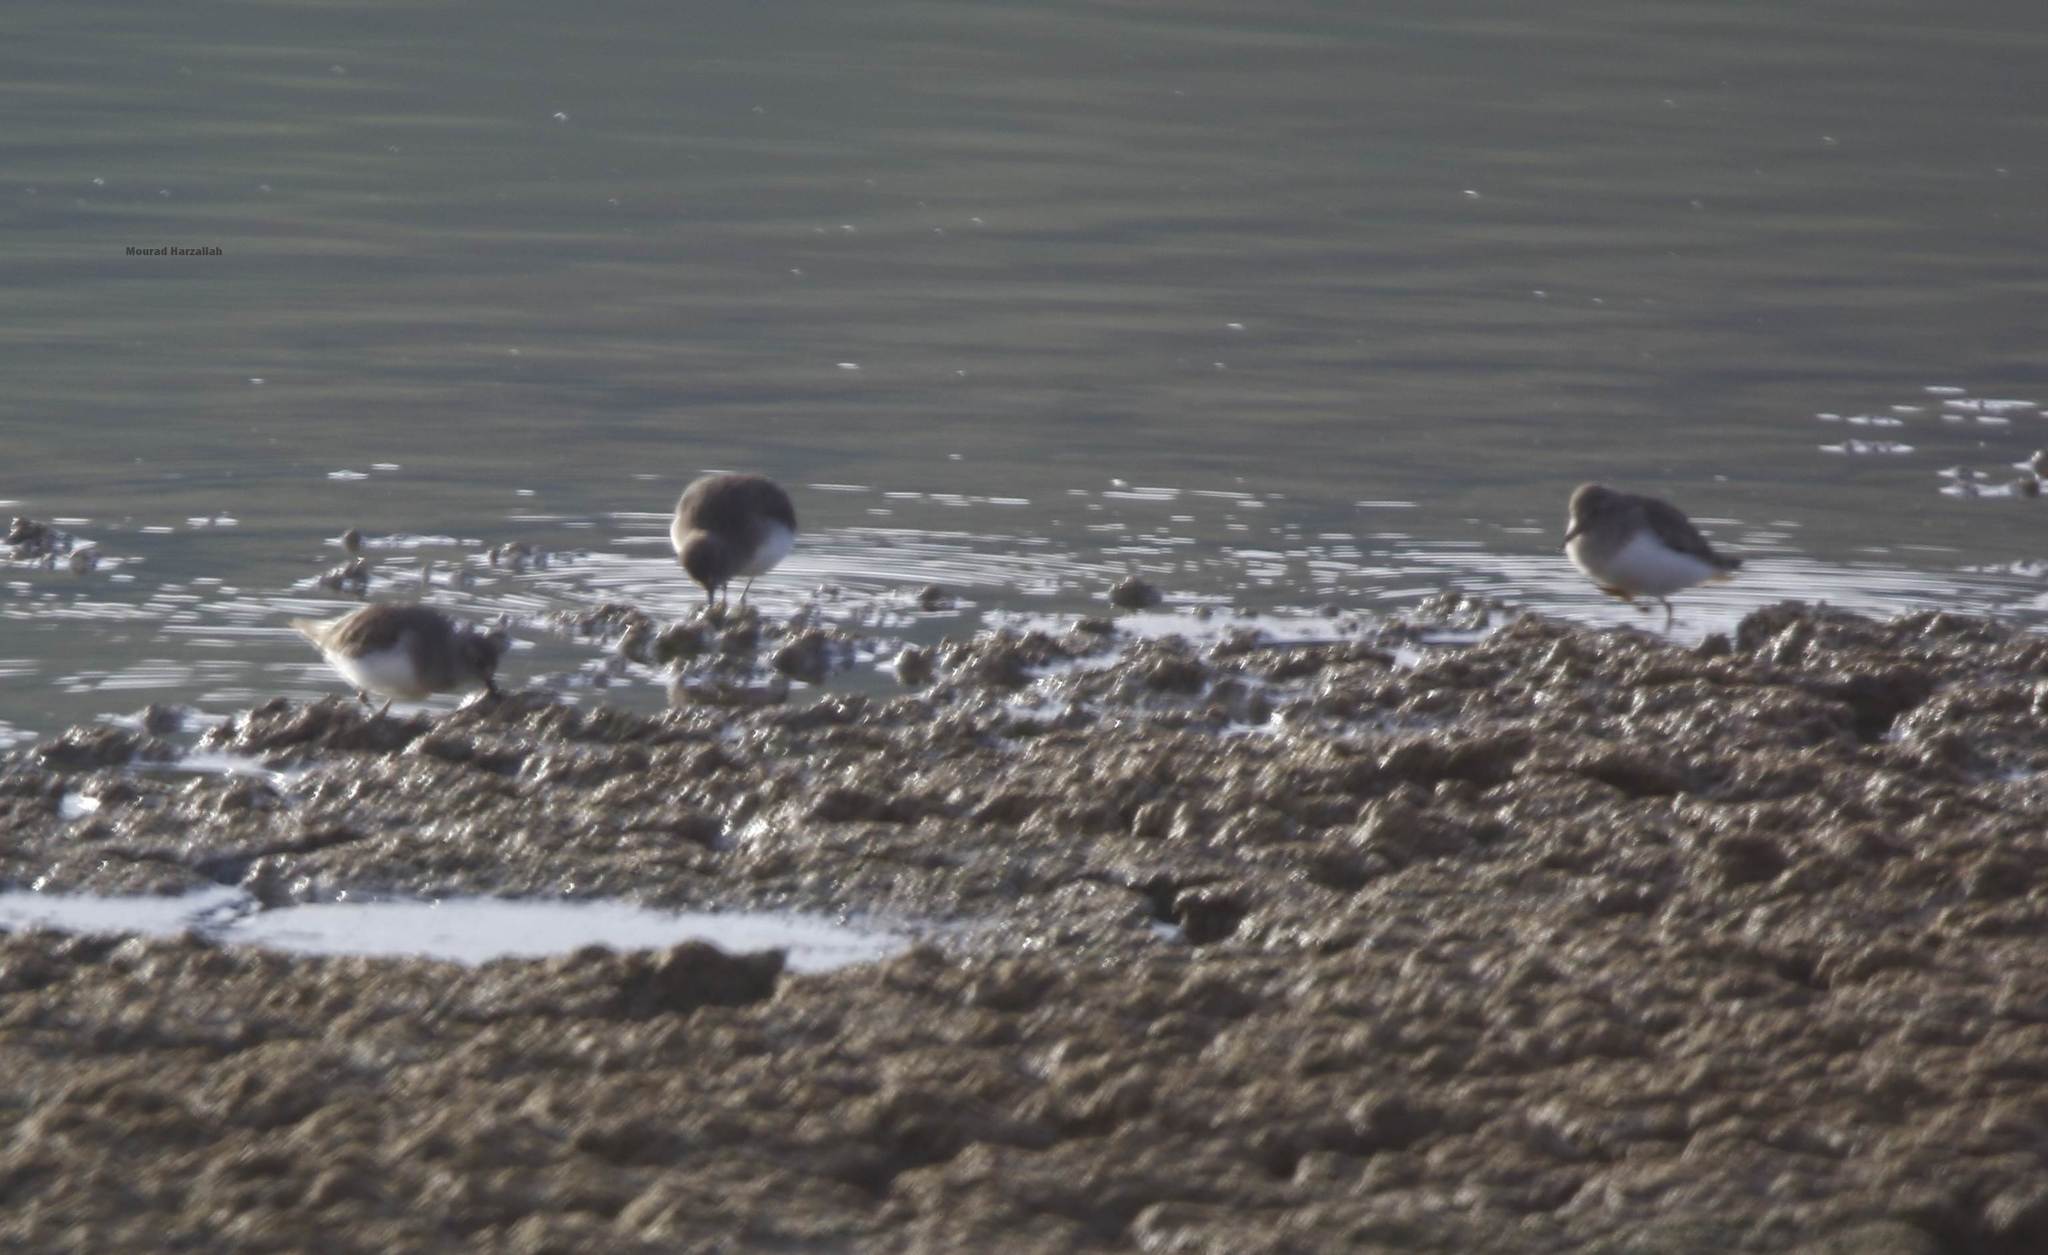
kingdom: Animalia
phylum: Chordata
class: Aves
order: Charadriiformes
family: Scolopacidae
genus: Calidris
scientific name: Calidris temminckii
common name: Temminck's stint
